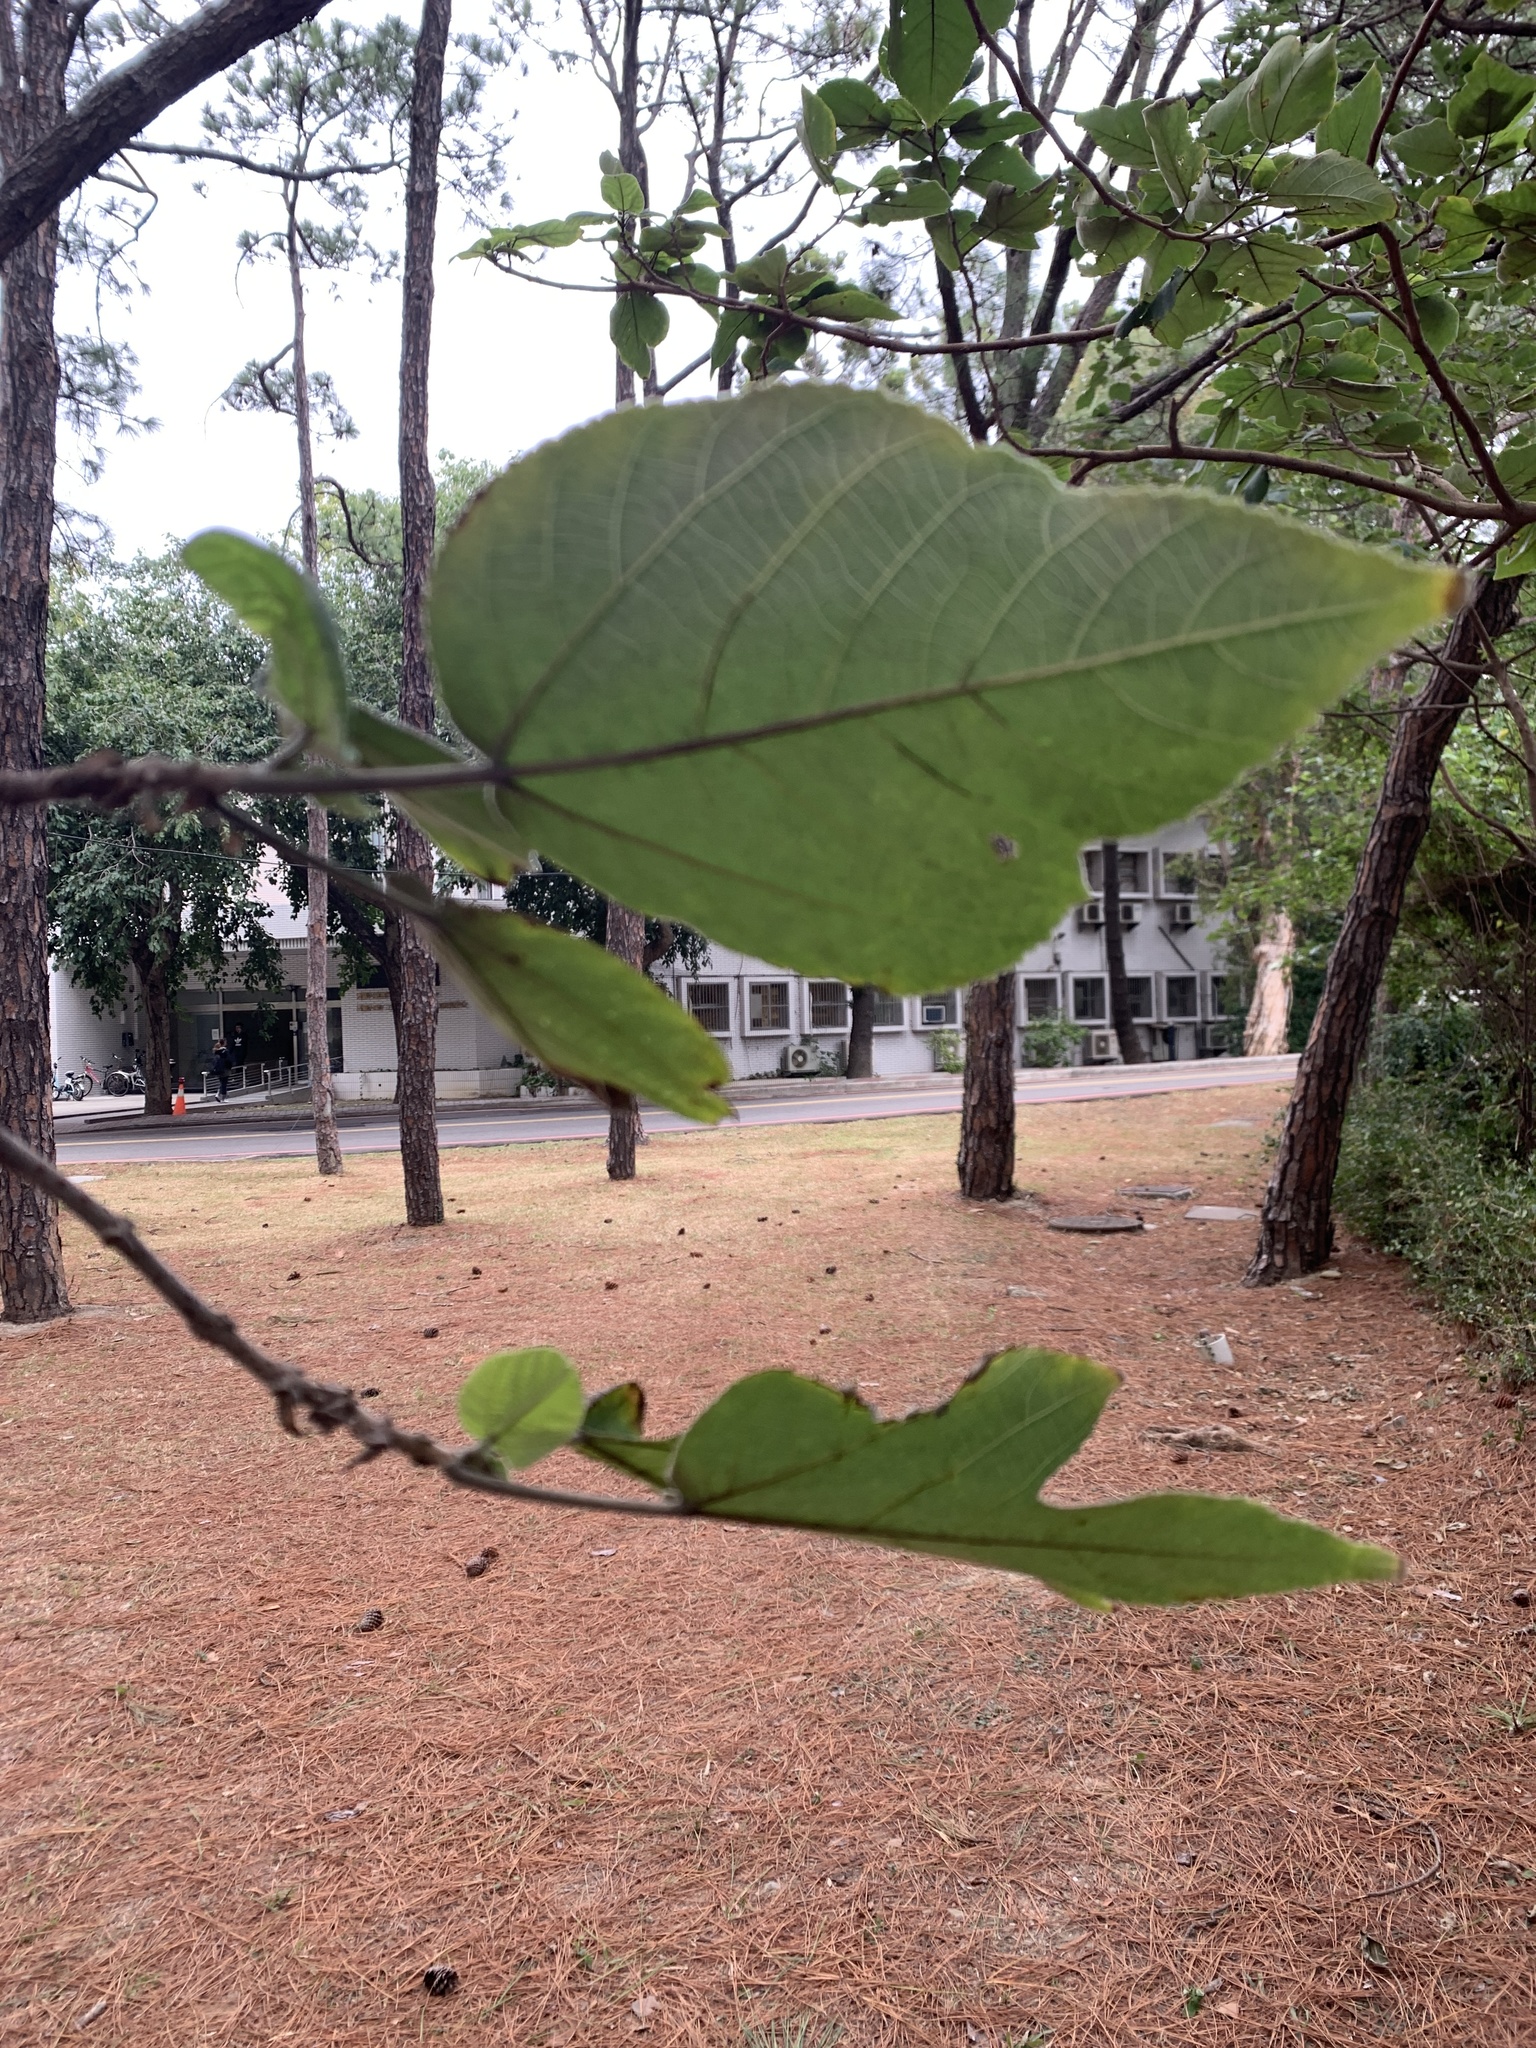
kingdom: Plantae
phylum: Tracheophyta
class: Magnoliopsida
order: Rosales
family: Moraceae
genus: Broussonetia
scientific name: Broussonetia papyrifera
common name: Paper mulberry
